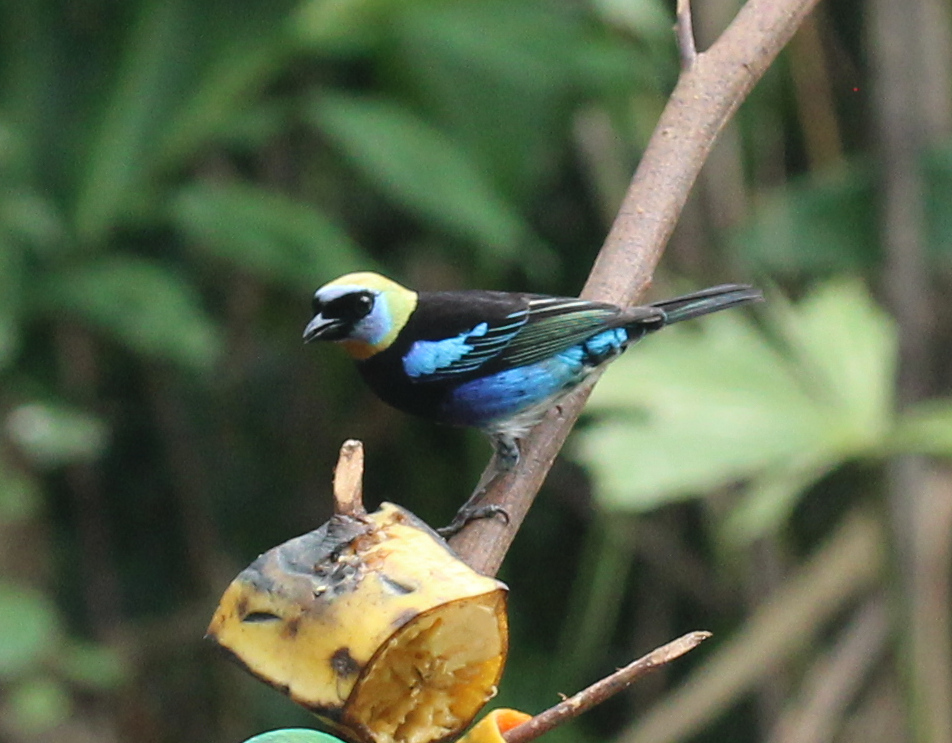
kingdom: Animalia
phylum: Chordata
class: Aves
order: Passeriformes
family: Thraupidae
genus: Stilpnia
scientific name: Stilpnia larvata
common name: Golden-hooded tanager
